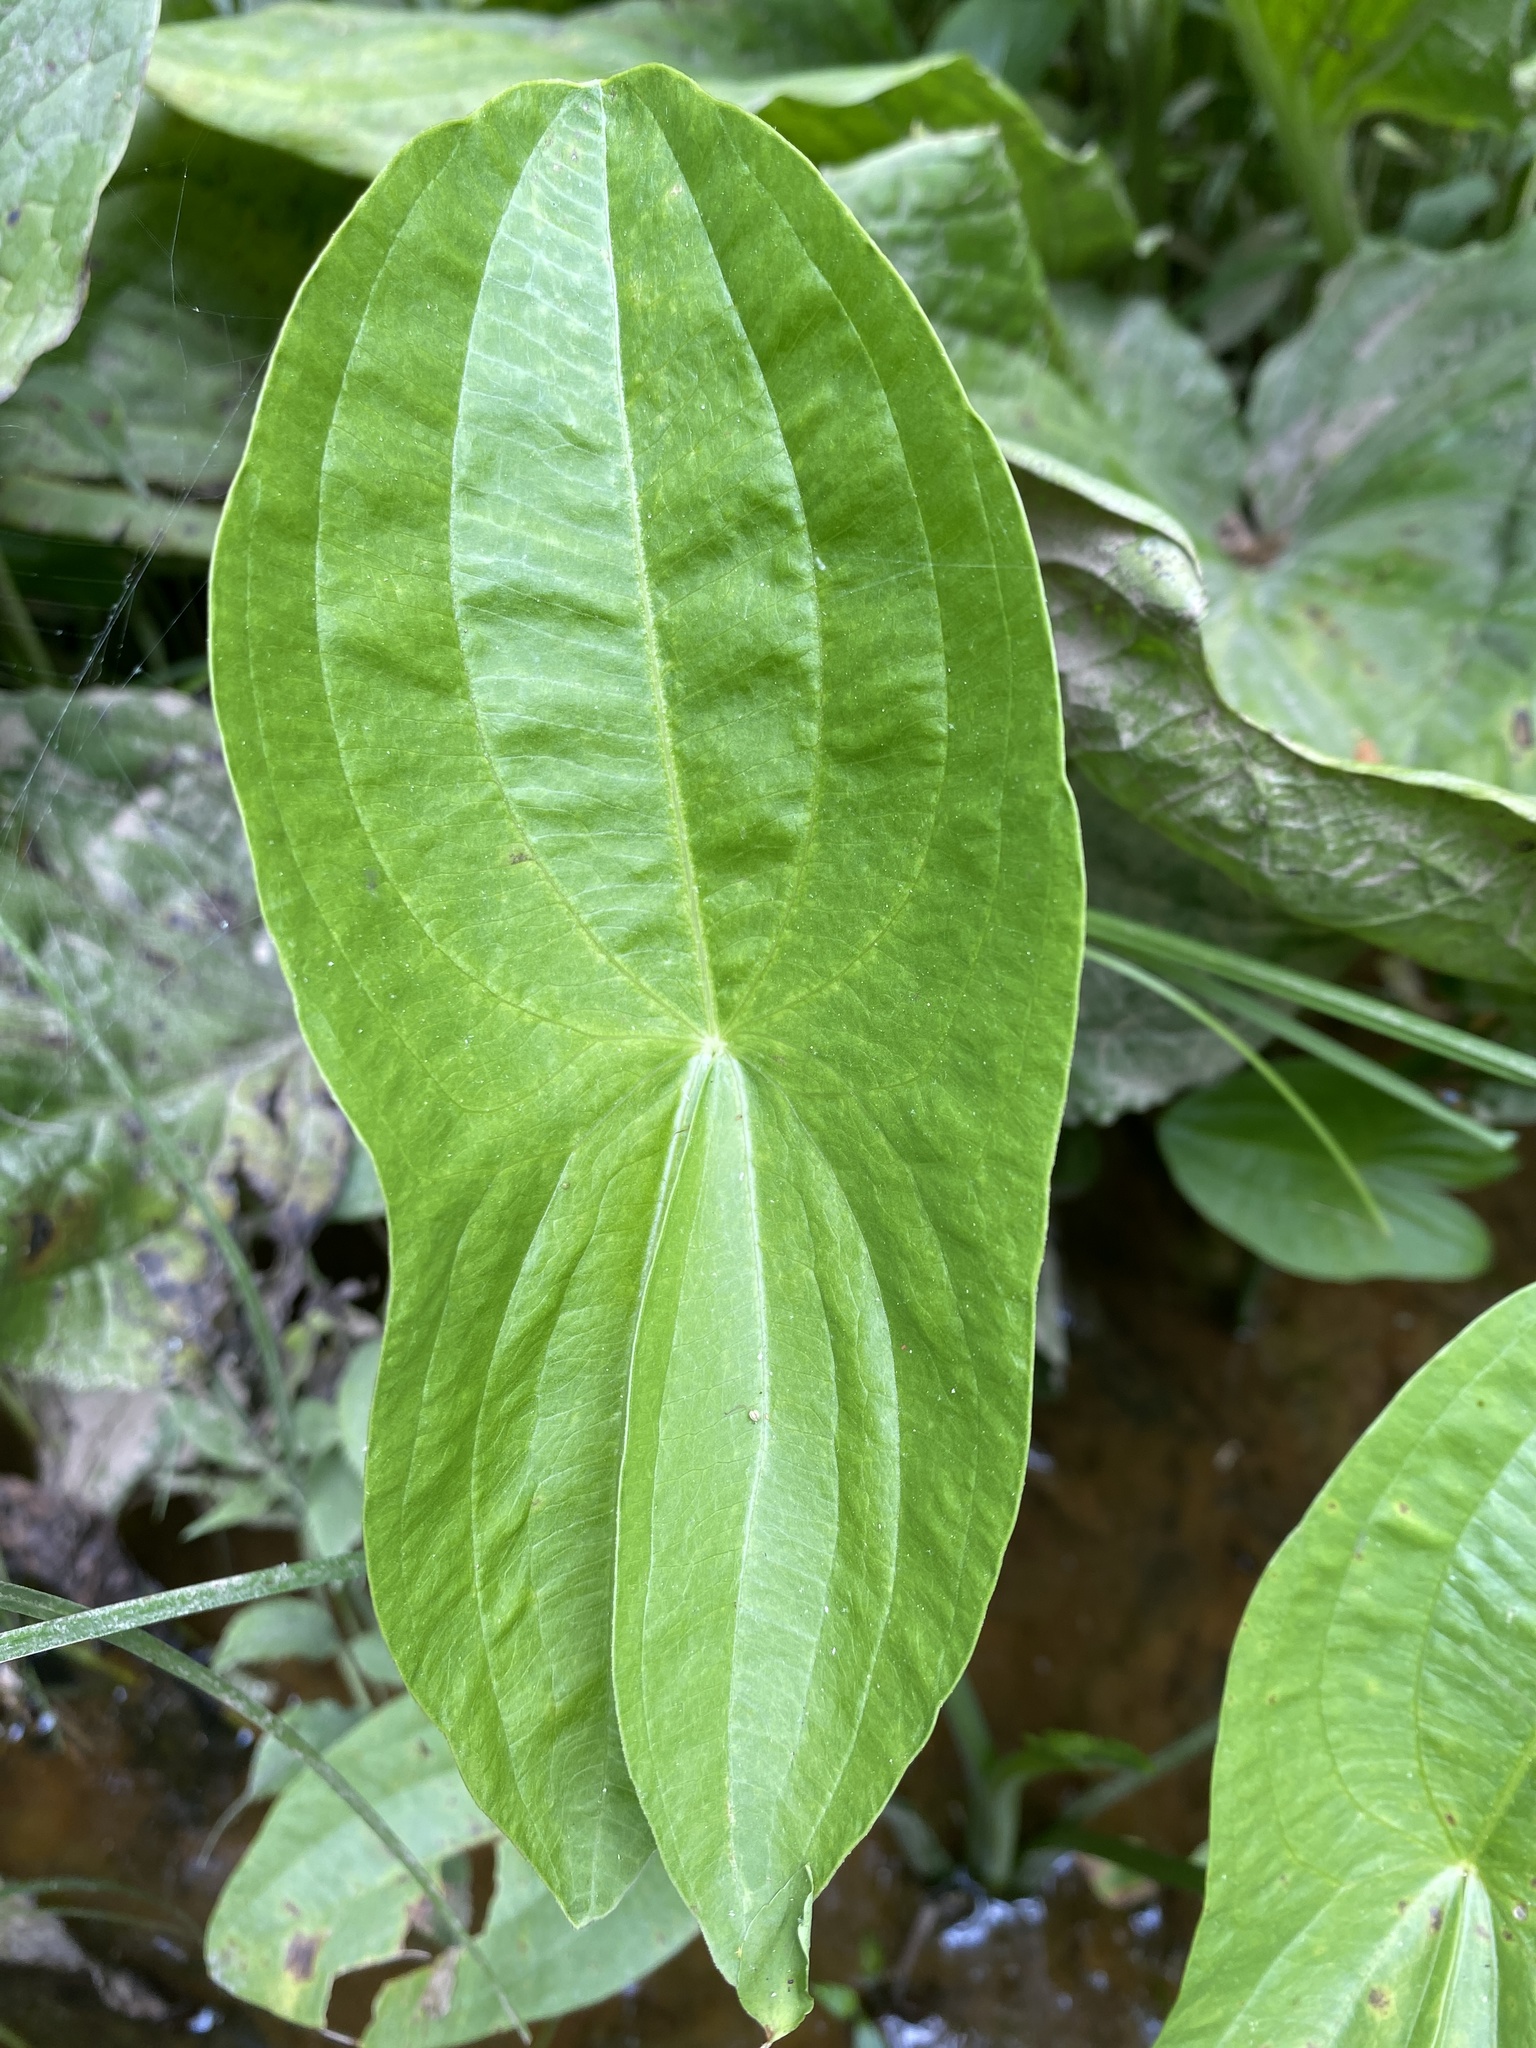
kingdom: Plantae
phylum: Tracheophyta
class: Liliopsida
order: Alismatales
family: Alismataceae
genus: Sagittaria
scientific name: Sagittaria latifolia
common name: Duck-potato
